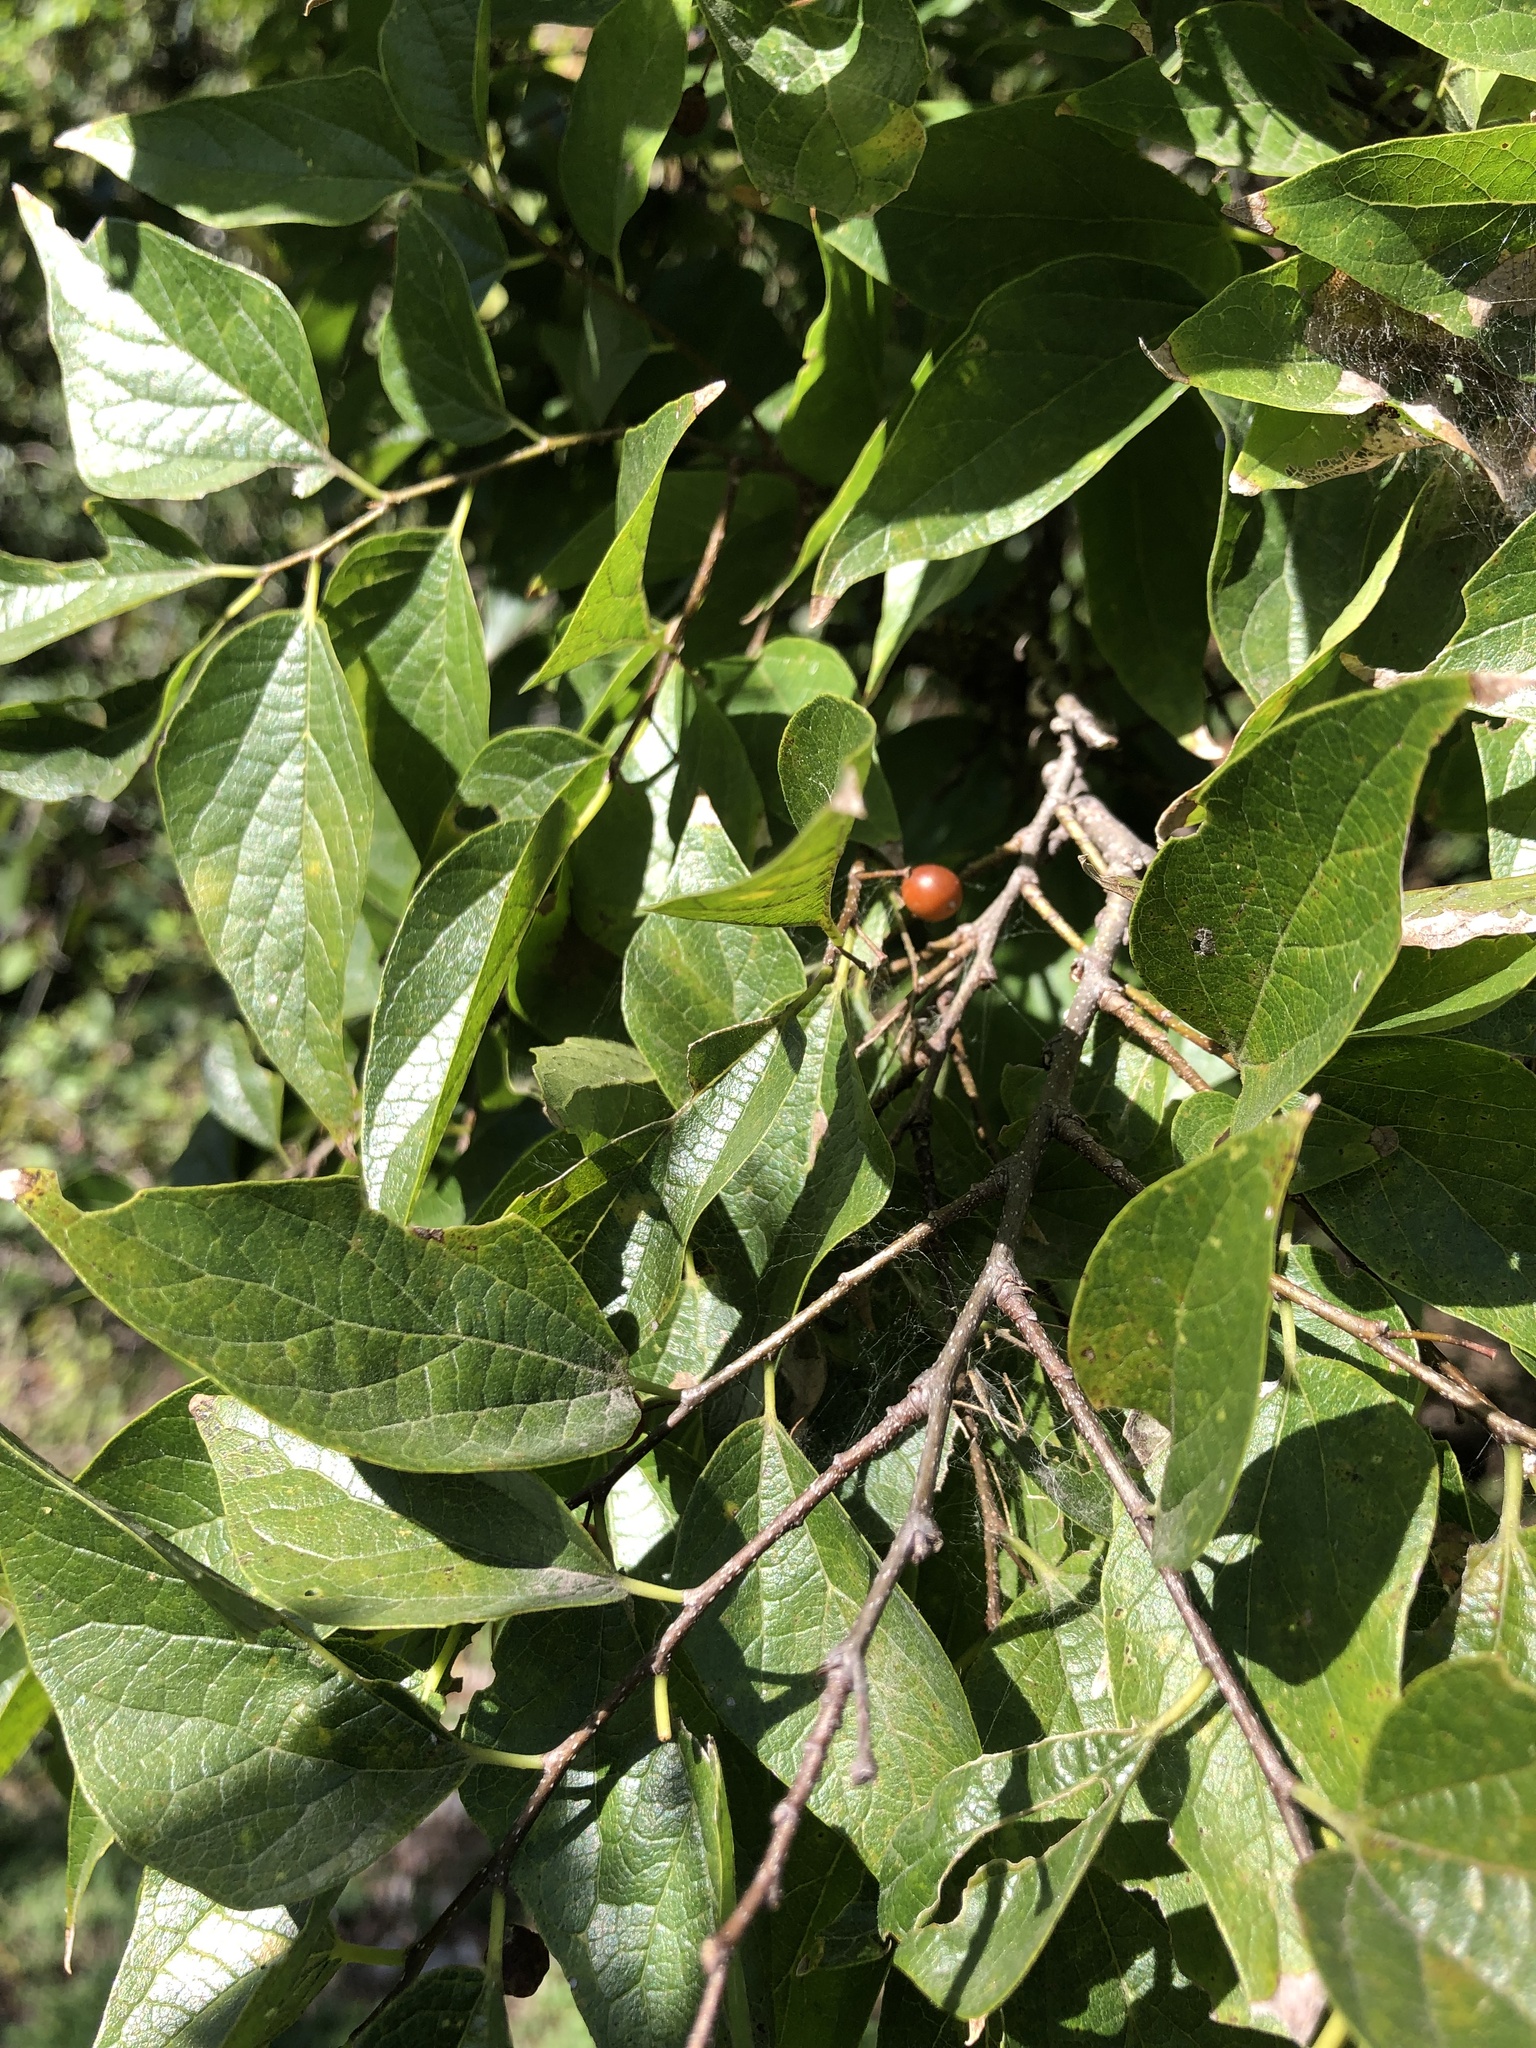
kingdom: Plantae
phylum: Tracheophyta
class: Magnoliopsida
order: Rosales
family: Cannabaceae
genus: Celtis
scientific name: Celtis laevigata
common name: Sugarberry
